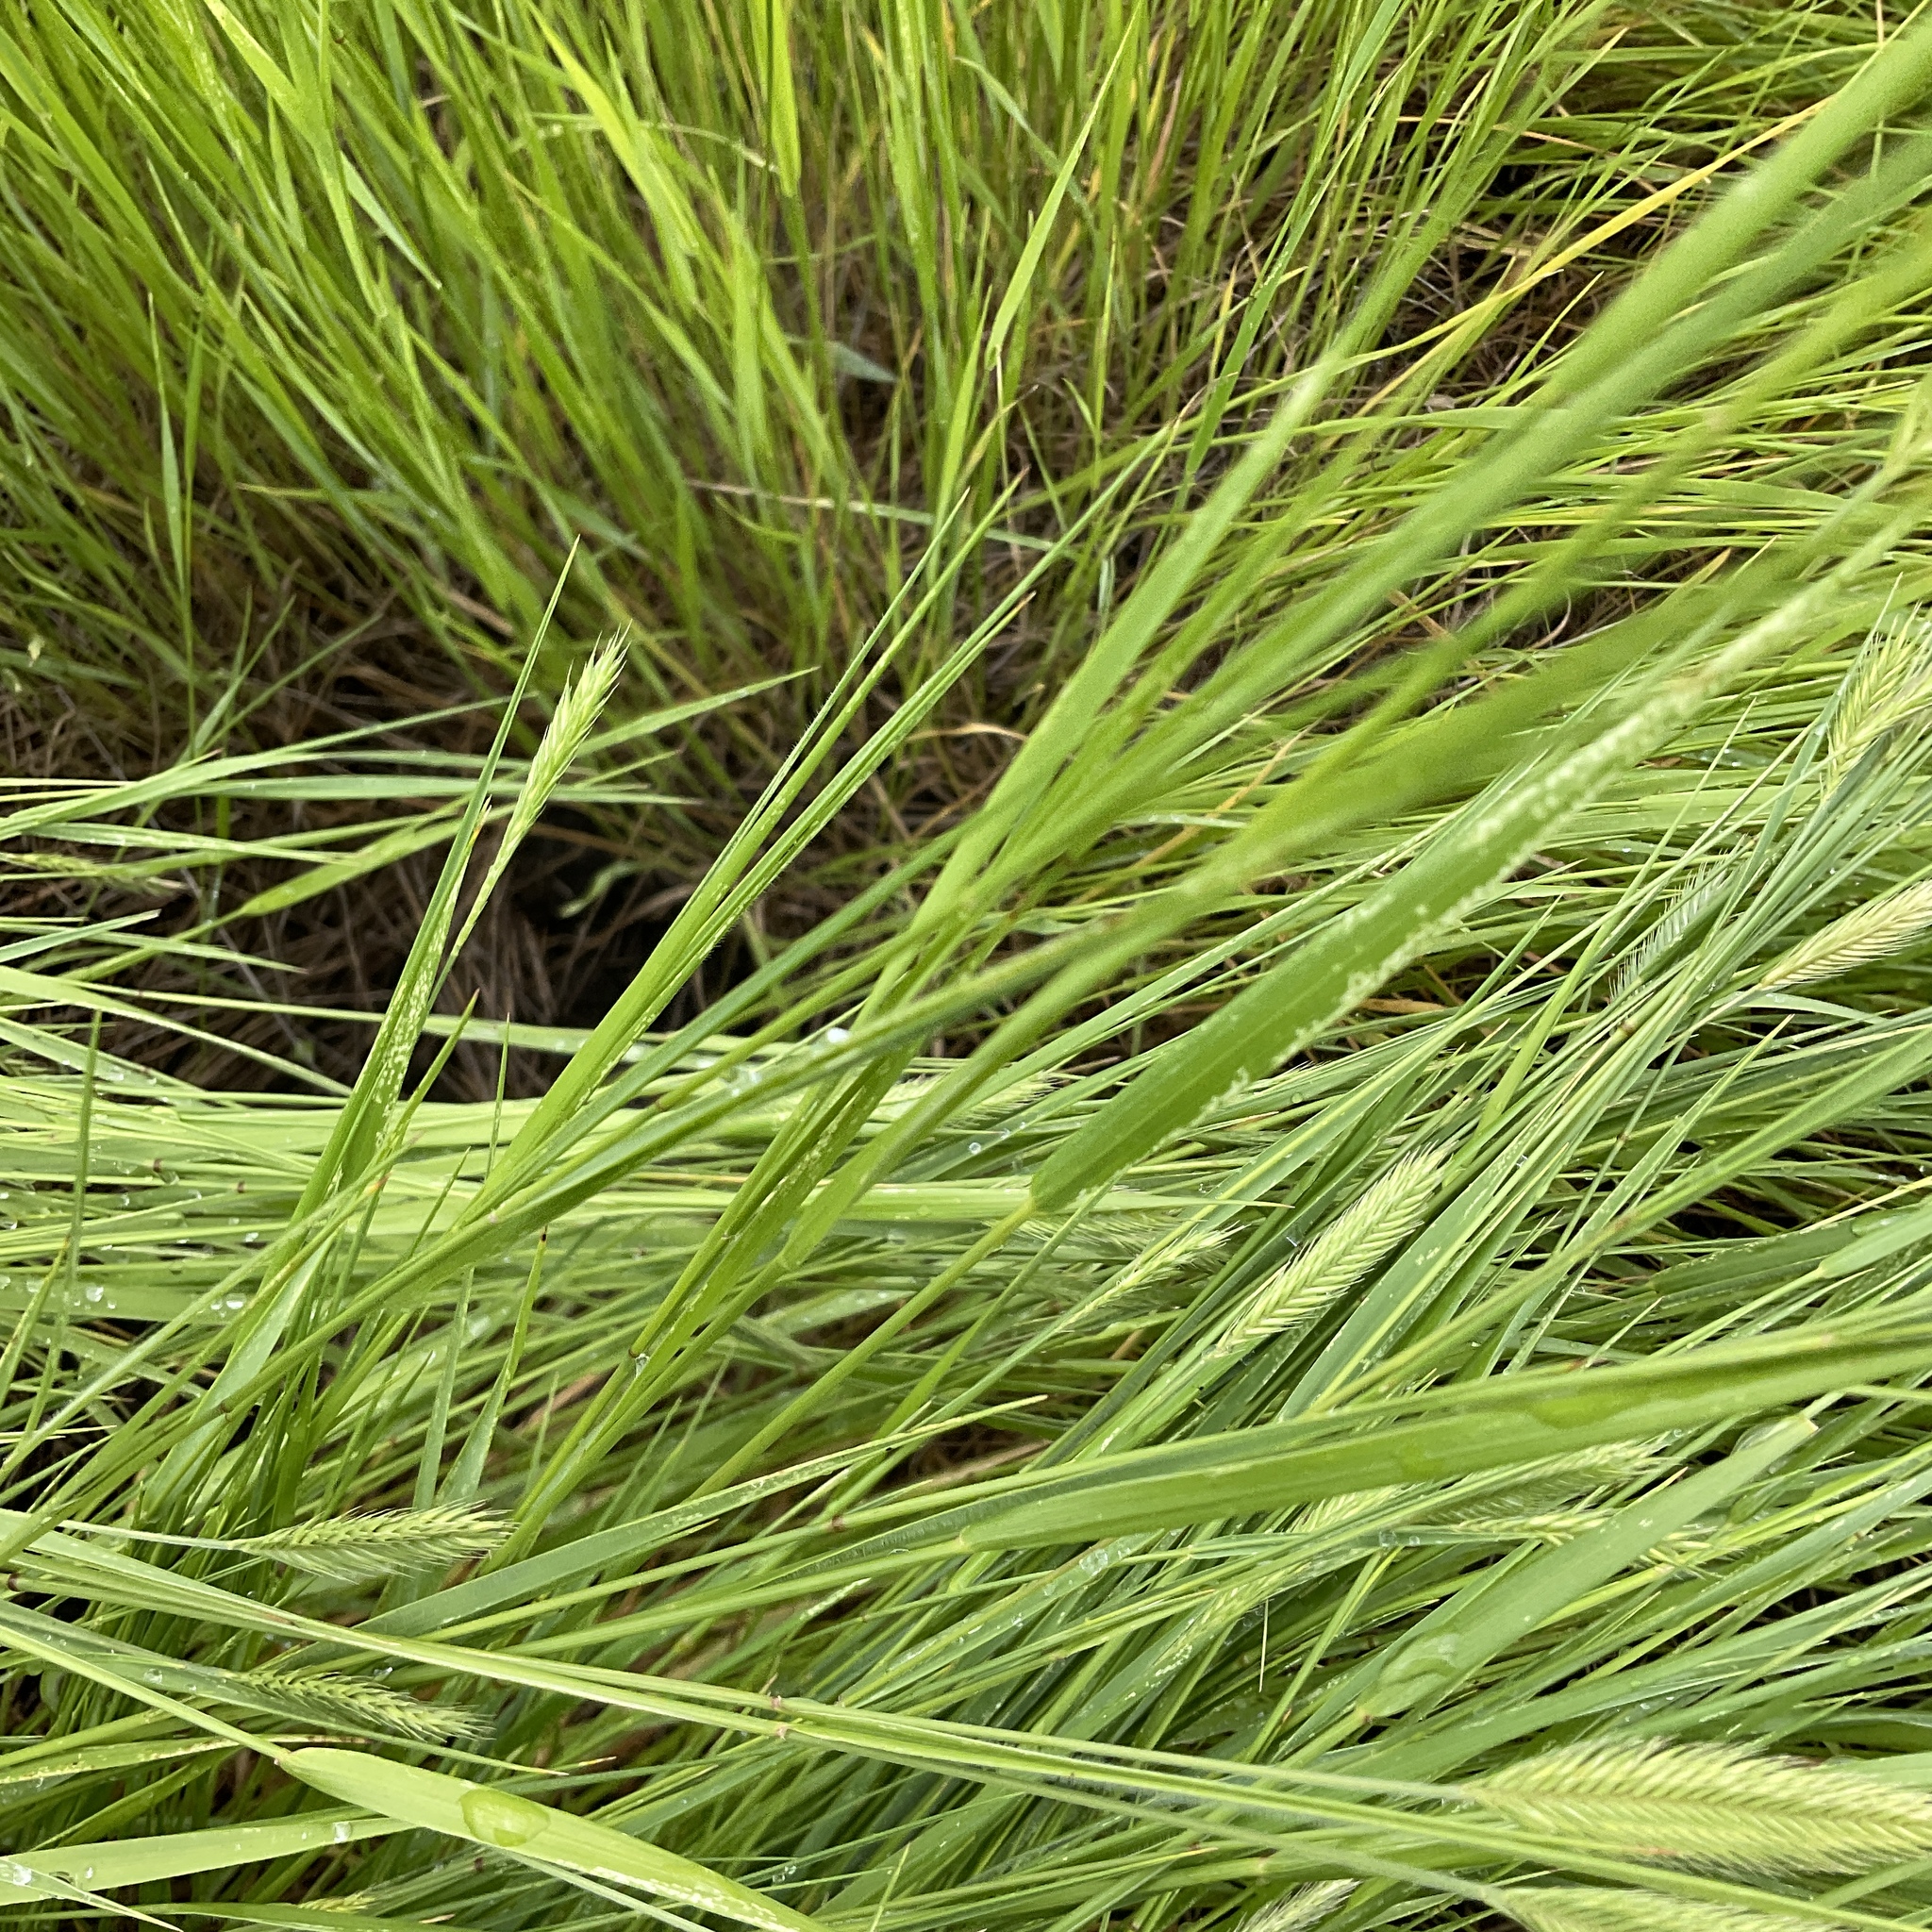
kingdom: Plantae
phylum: Tracheophyta
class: Liliopsida
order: Poales
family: Poaceae
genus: Agropyron
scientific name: Agropyron cristatum
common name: Crested wheatgrass
